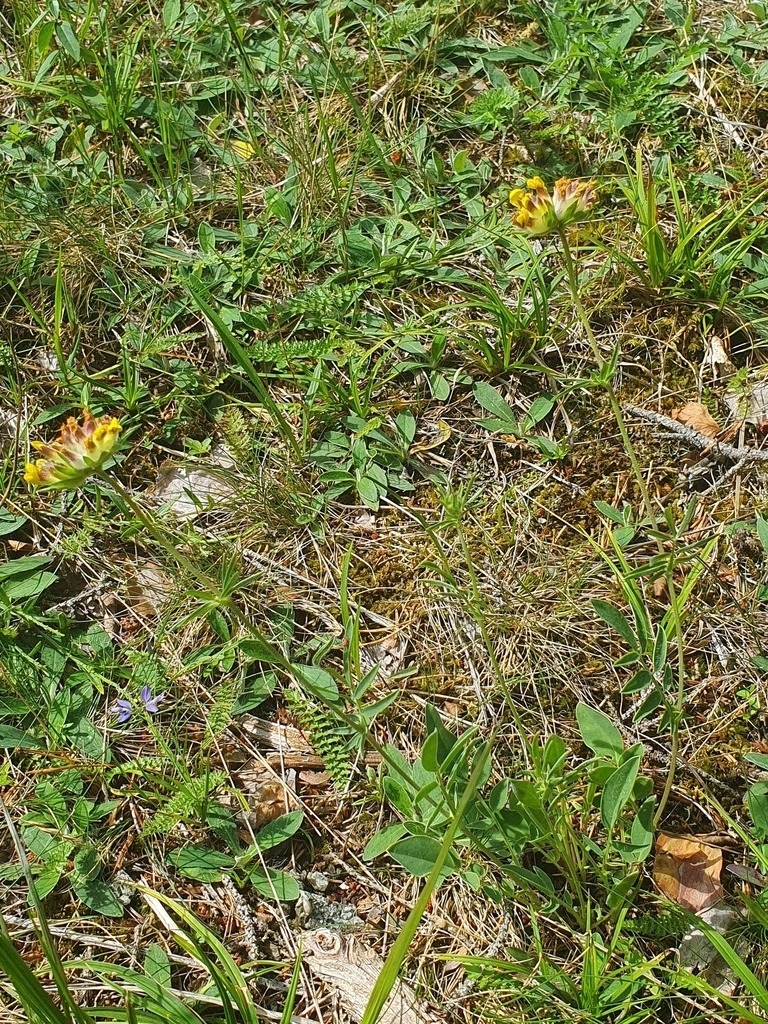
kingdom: Plantae
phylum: Tracheophyta
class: Magnoliopsida
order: Fabales
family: Fabaceae
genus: Anthyllis
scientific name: Anthyllis vulneraria
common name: Kidney vetch
